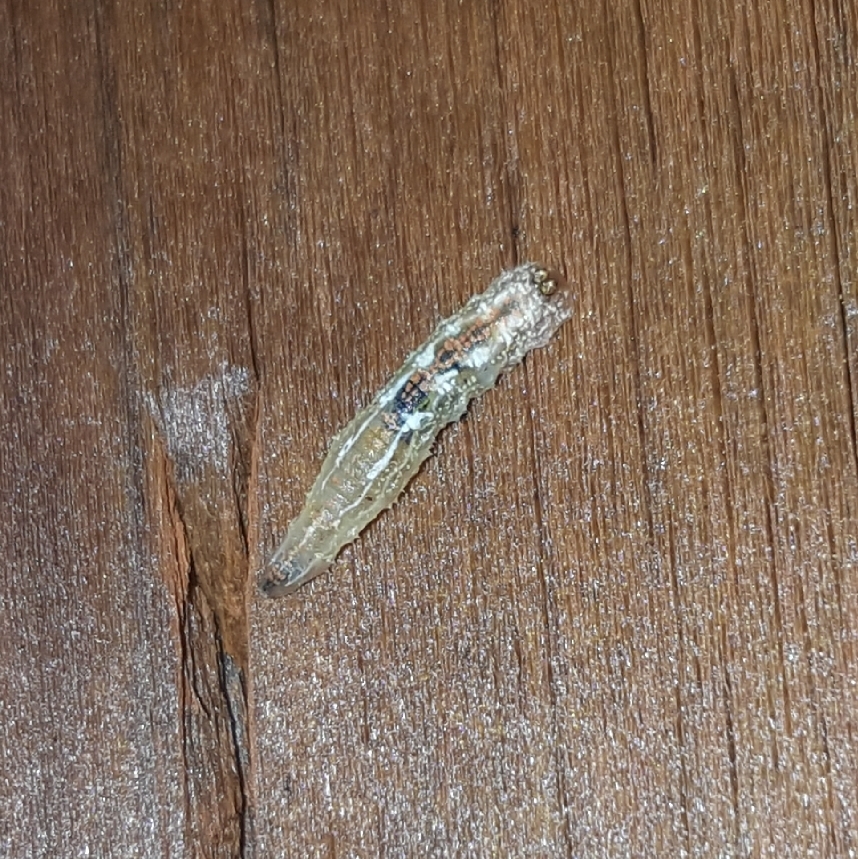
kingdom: Animalia
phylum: Arthropoda
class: Insecta
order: Diptera
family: Syrphidae
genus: Syrphus
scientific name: Syrphus
